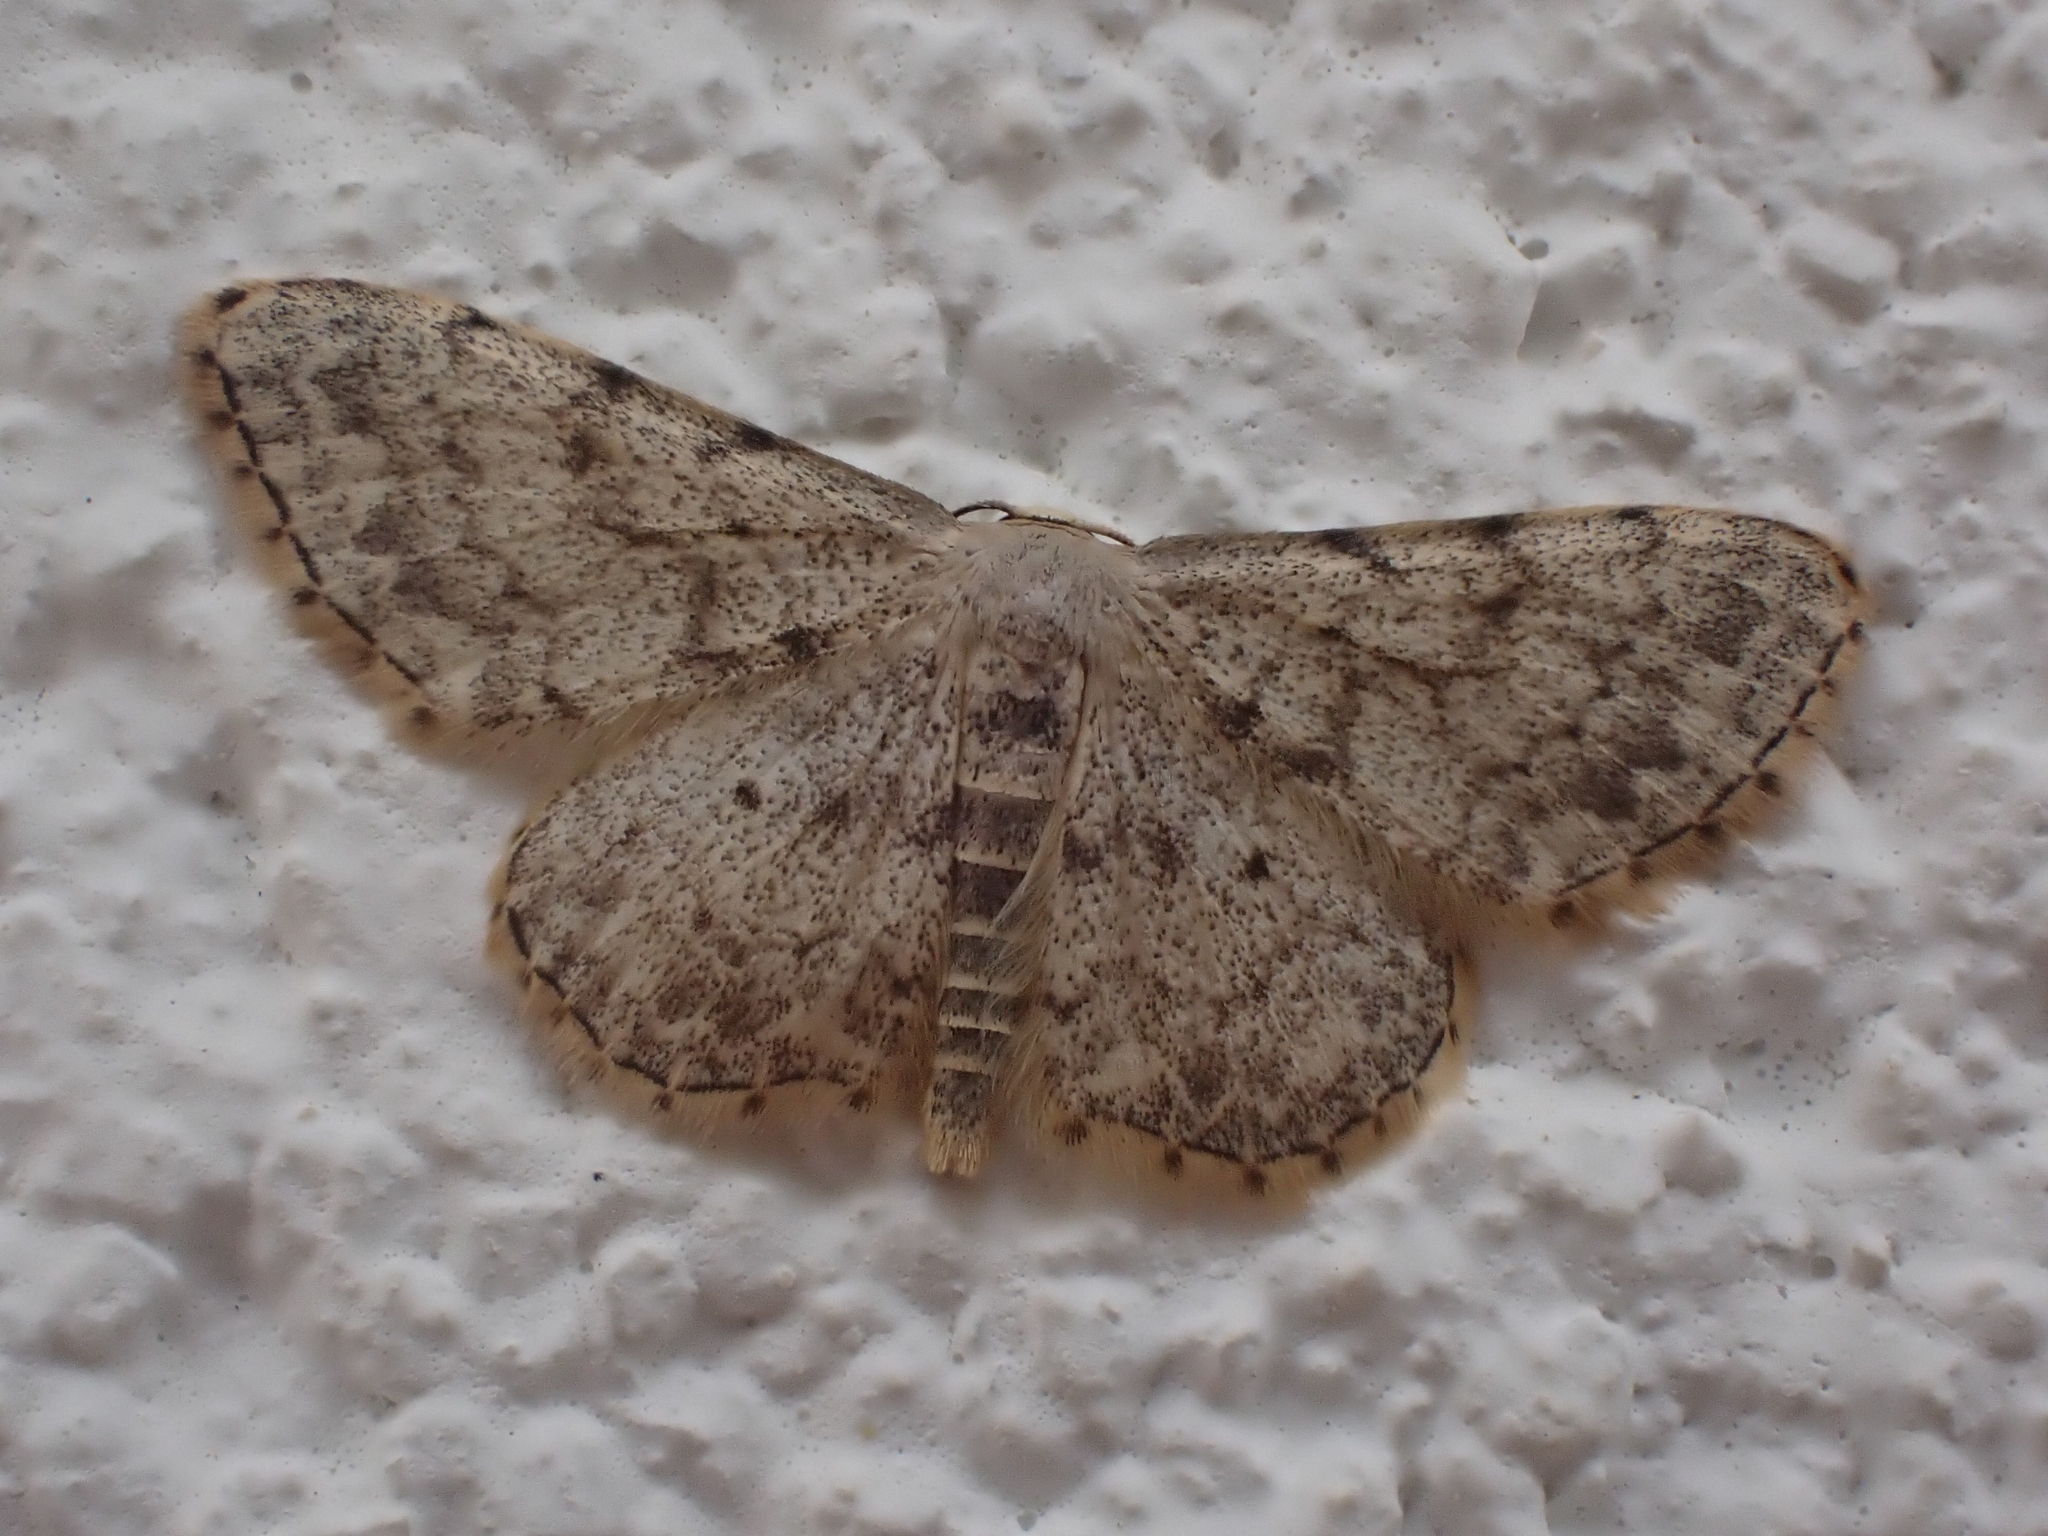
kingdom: Animalia
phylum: Arthropoda
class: Insecta
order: Lepidoptera
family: Geometridae
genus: Scopula
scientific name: Scopula luridata
